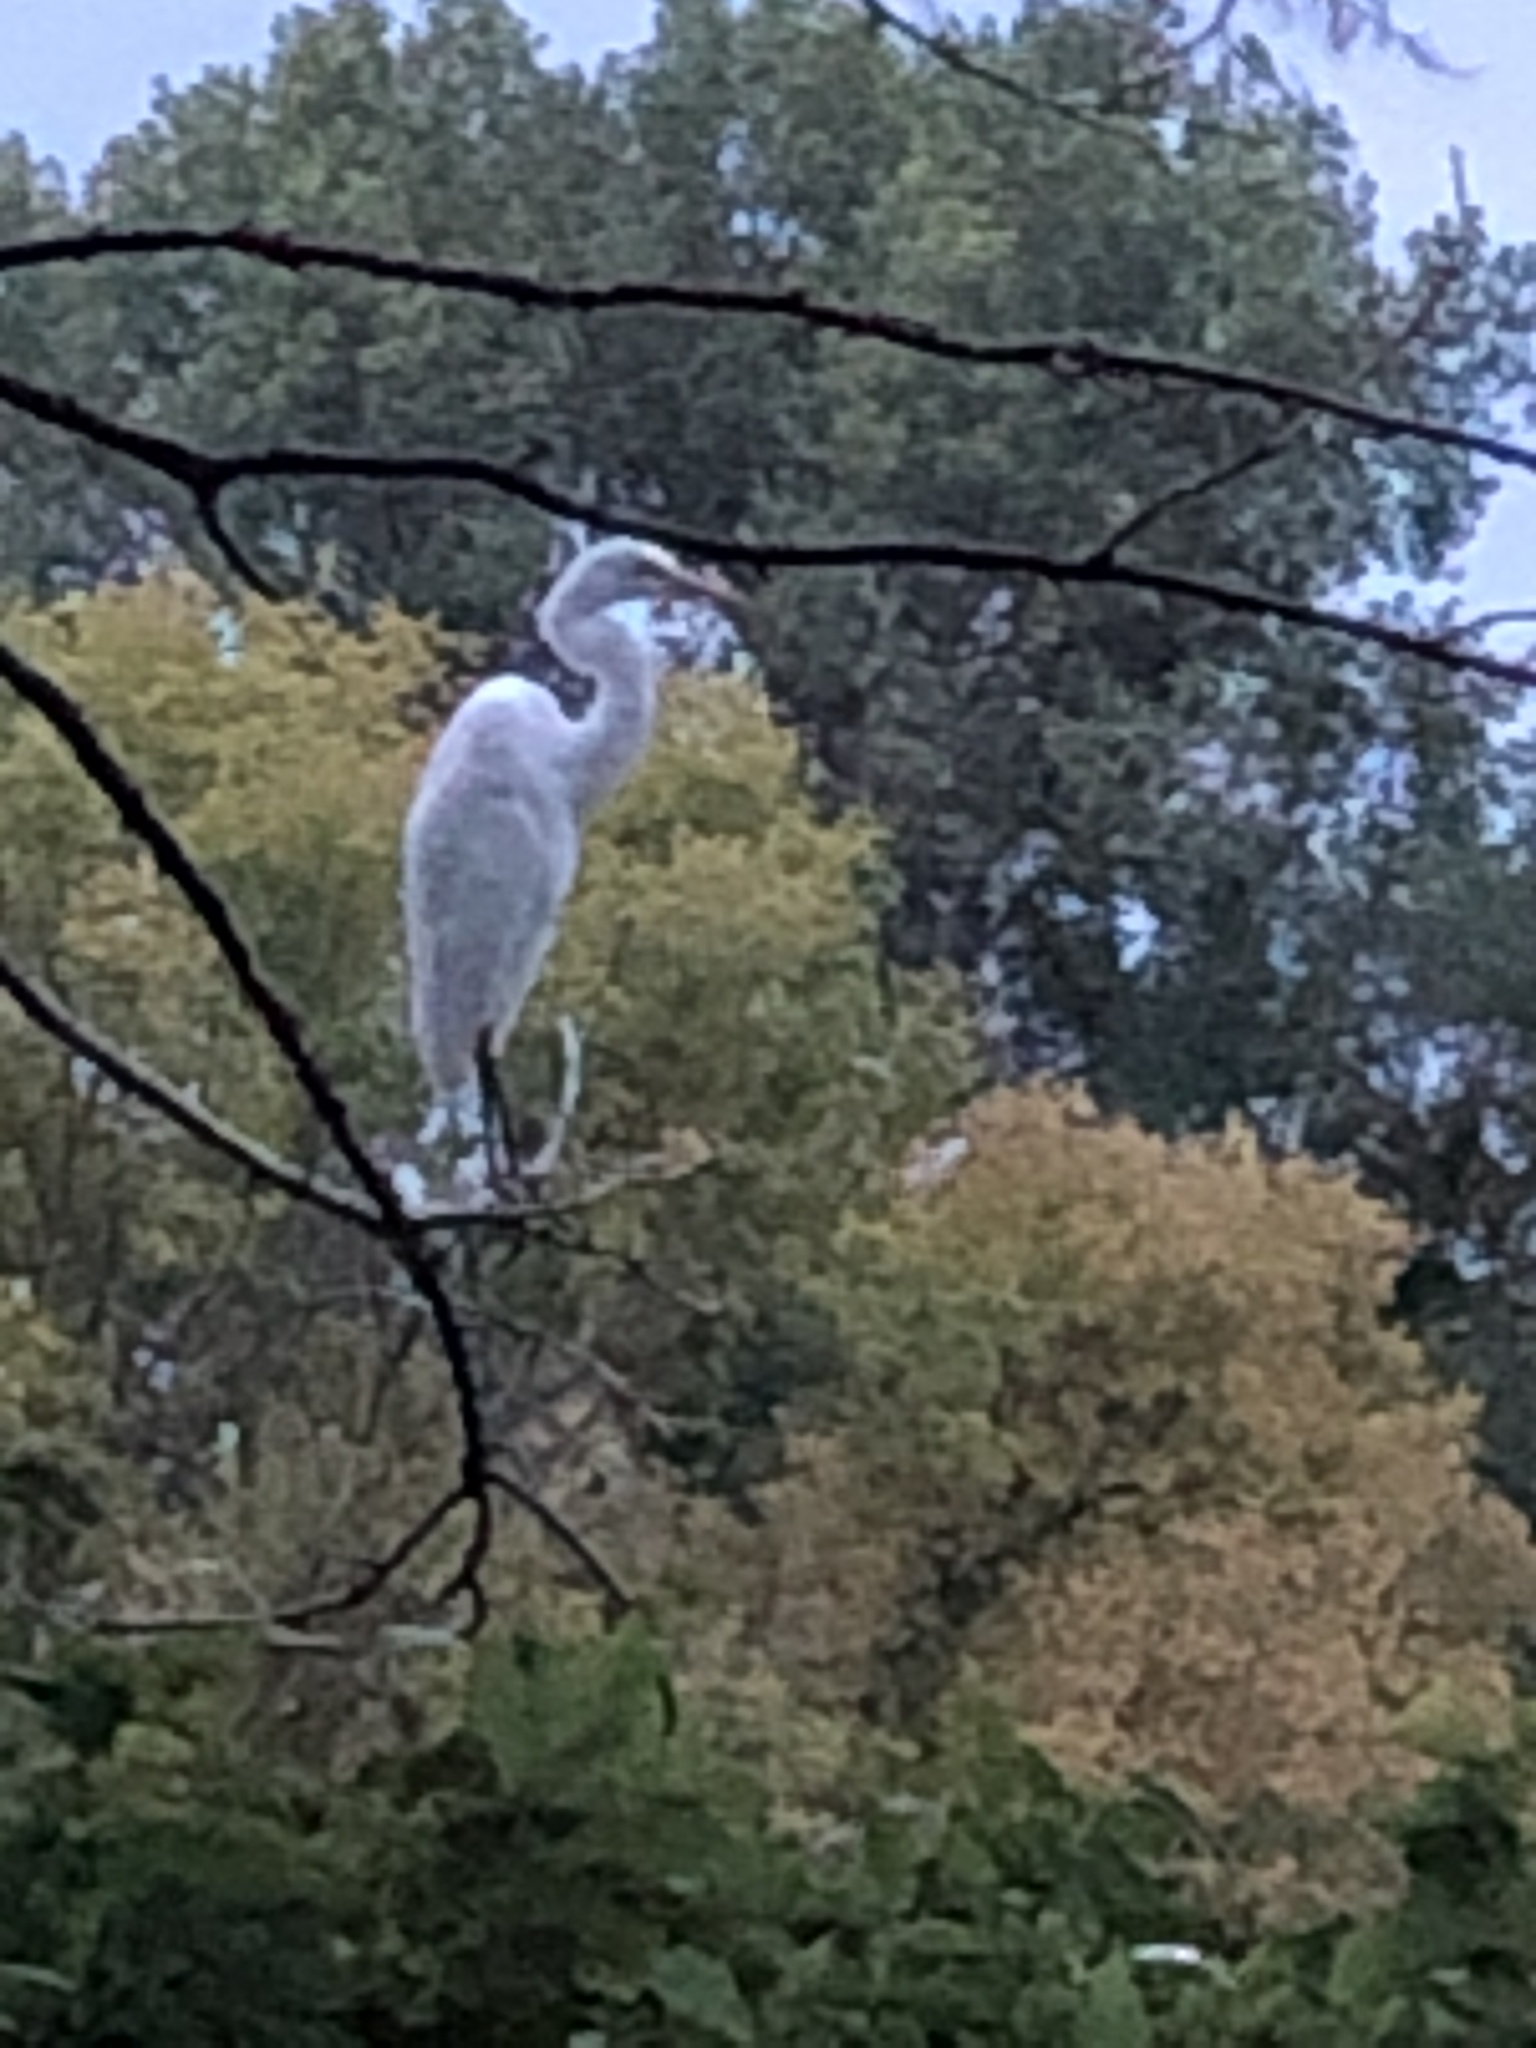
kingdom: Animalia
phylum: Chordata
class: Aves
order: Pelecaniformes
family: Ardeidae
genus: Ardea
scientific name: Ardea alba
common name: Great egret
